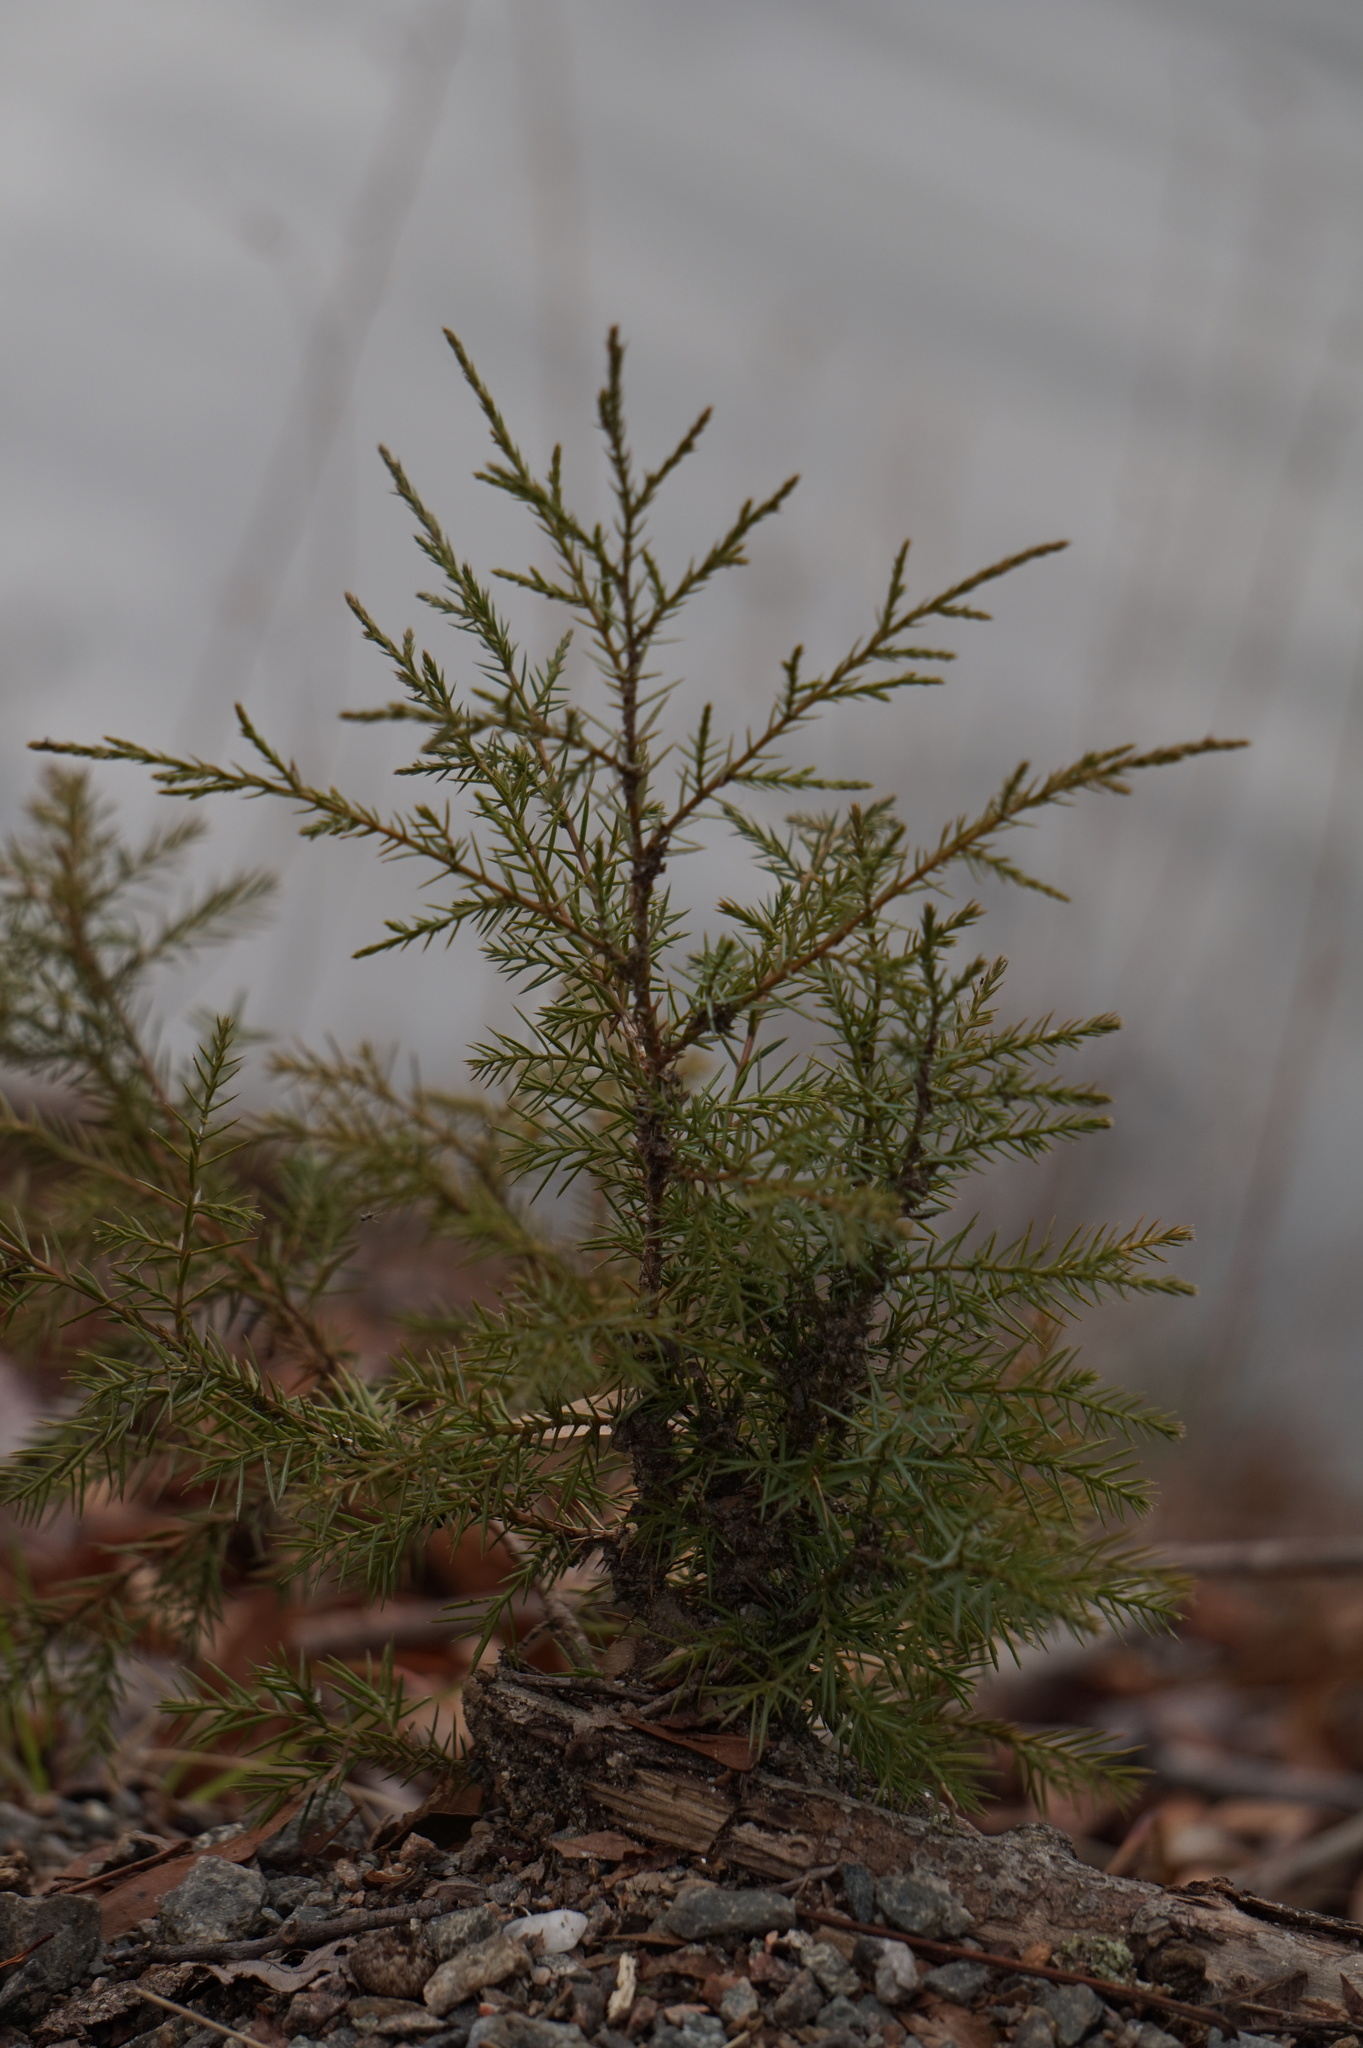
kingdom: Plantae
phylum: Tracheophyta
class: Pinopsida
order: Pinales
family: Cupressaceae
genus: Juniperus
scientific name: Juniperus virginiana
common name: Red juniper
